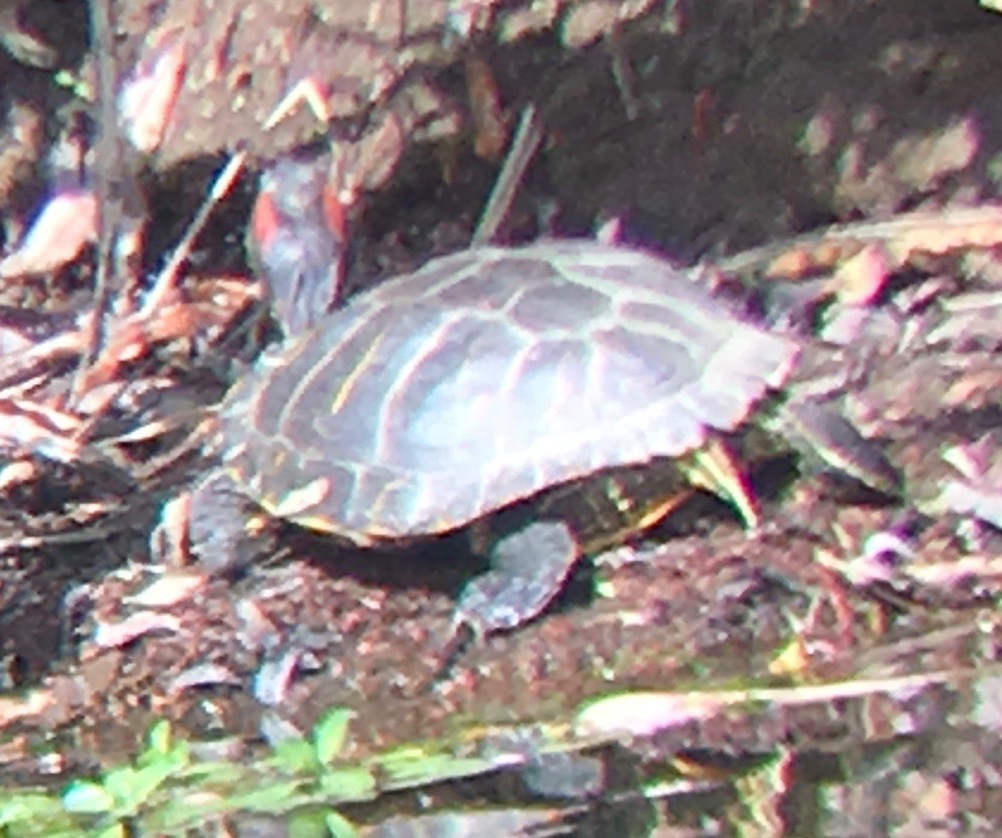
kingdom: Animalia
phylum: Chordata
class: Testudines
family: Emydidae
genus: Trachemys
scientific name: Trachemys scripta
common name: Slider
